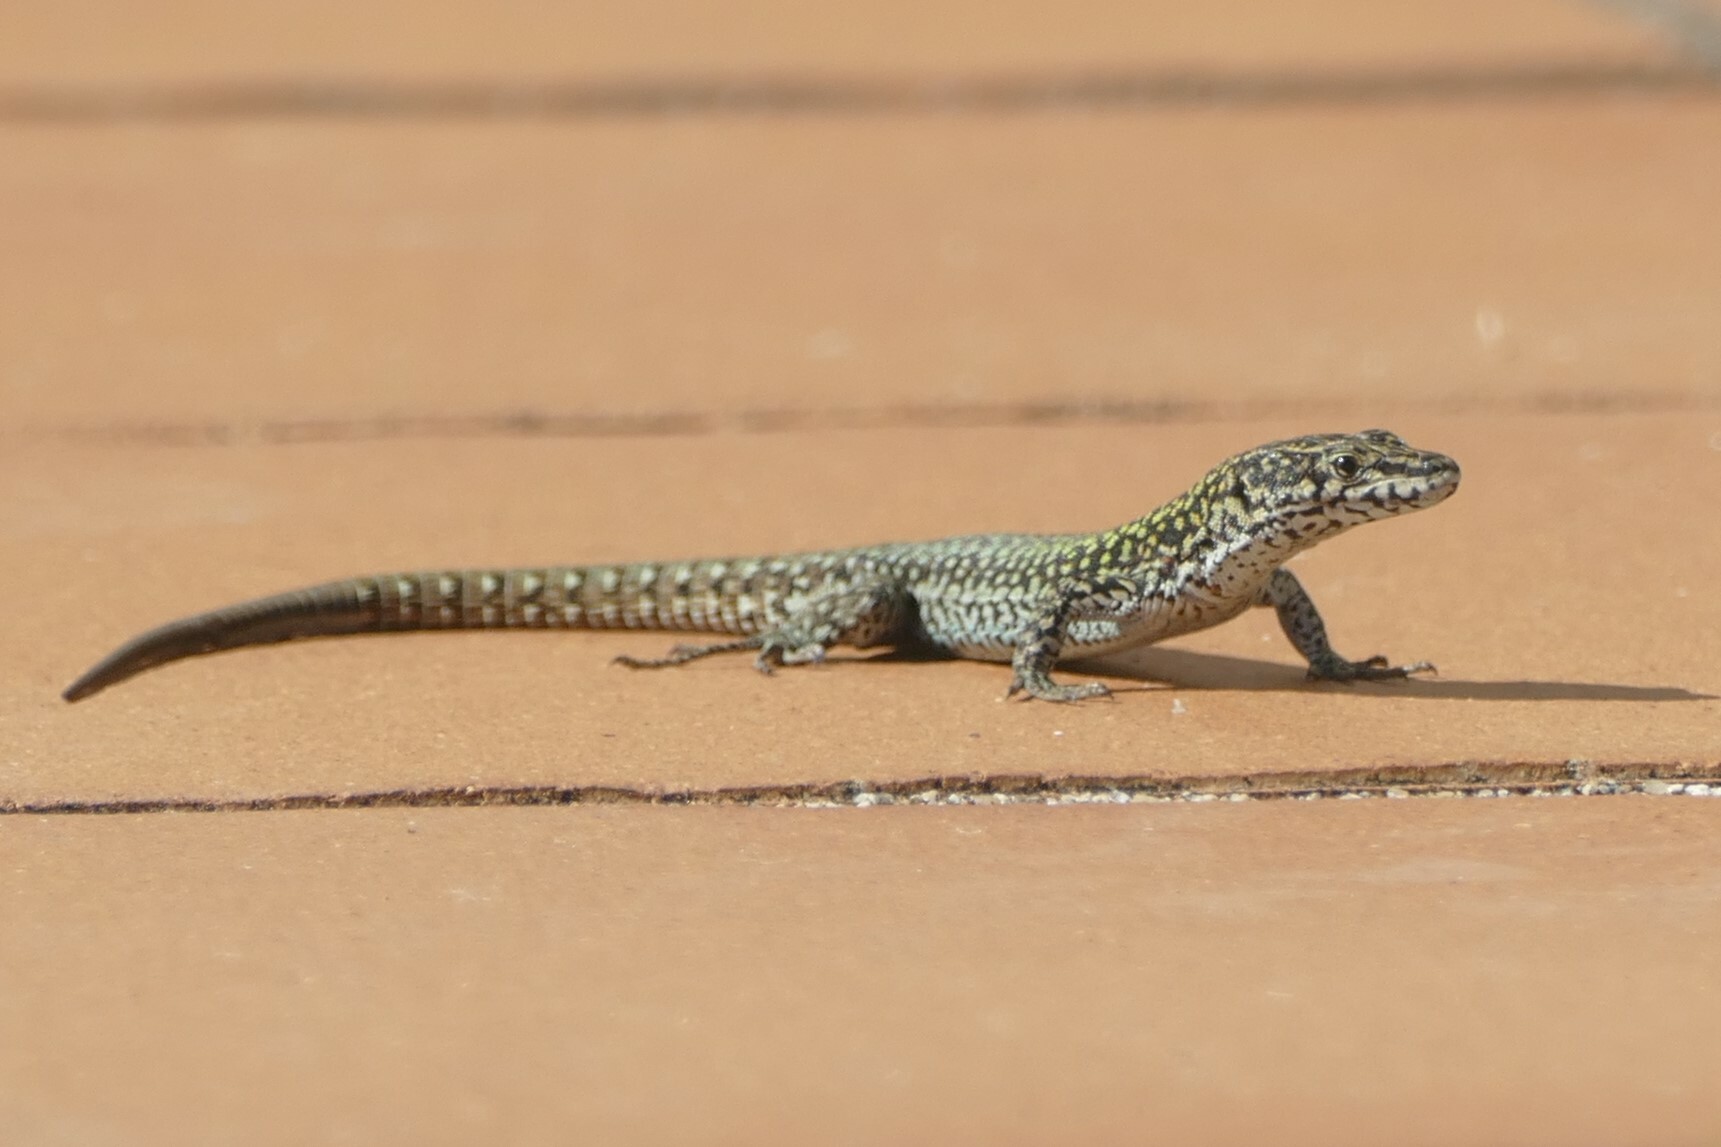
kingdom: Animalia
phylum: Chordata
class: Squamata
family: Lacertidae
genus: Podarcis
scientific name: Podarcis
